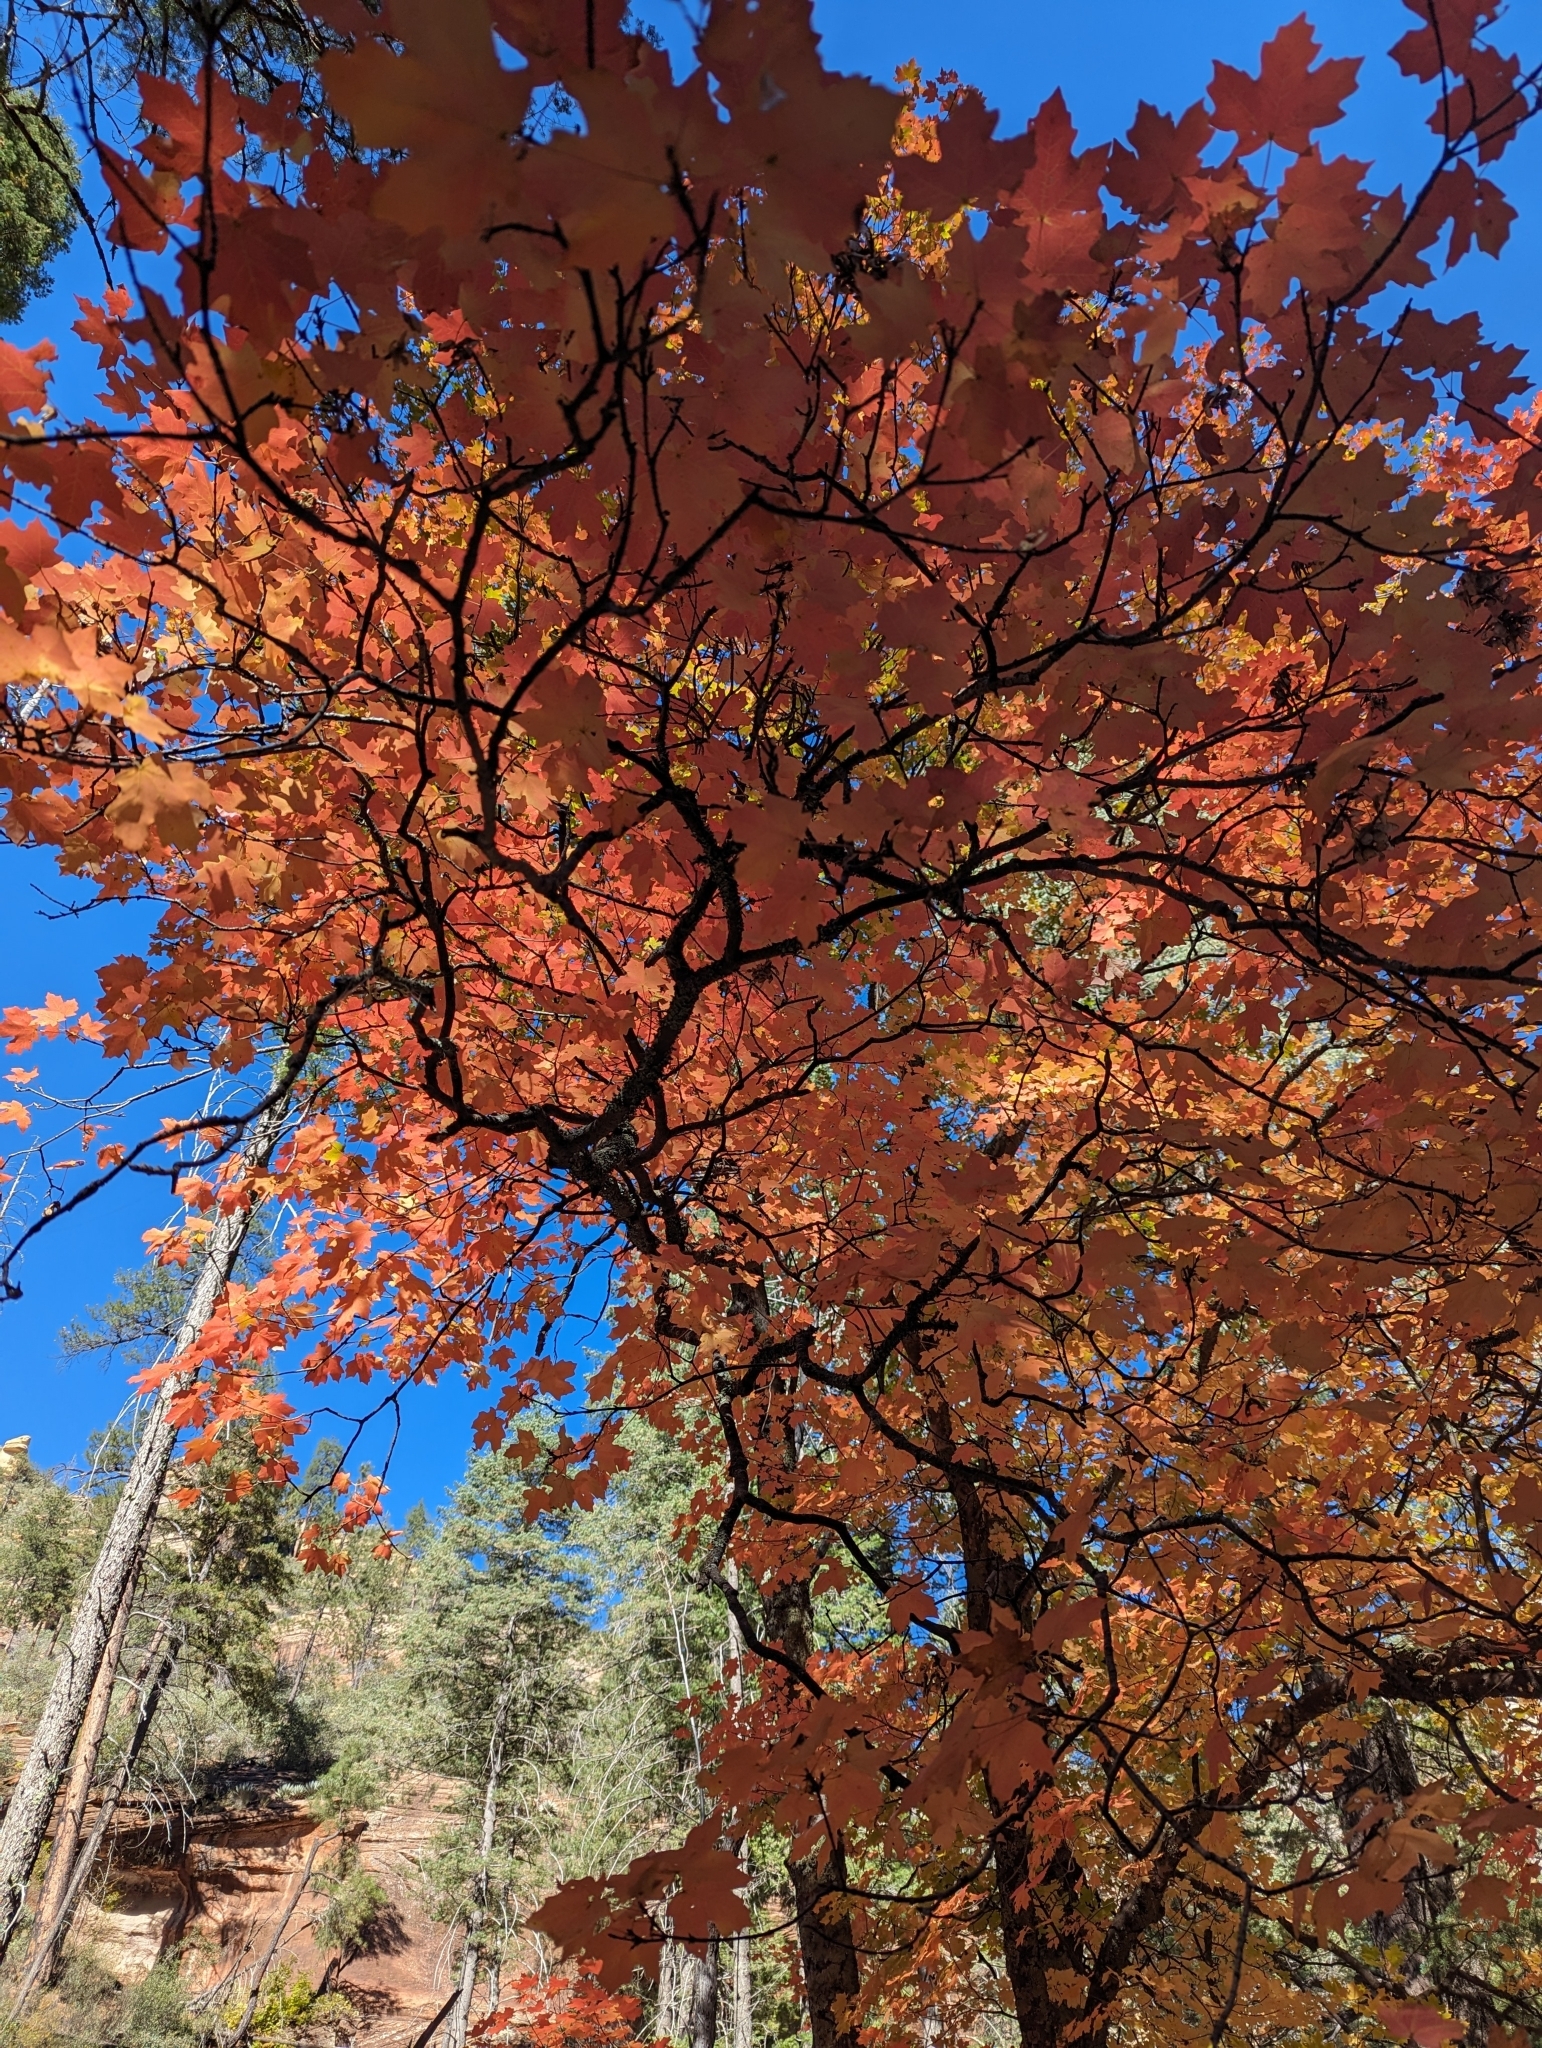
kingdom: Plantae
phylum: Tracheophyta
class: Magnoliopsida
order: Sapindales
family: Sapindaceae
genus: Acer
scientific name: Acer grandidentatum
